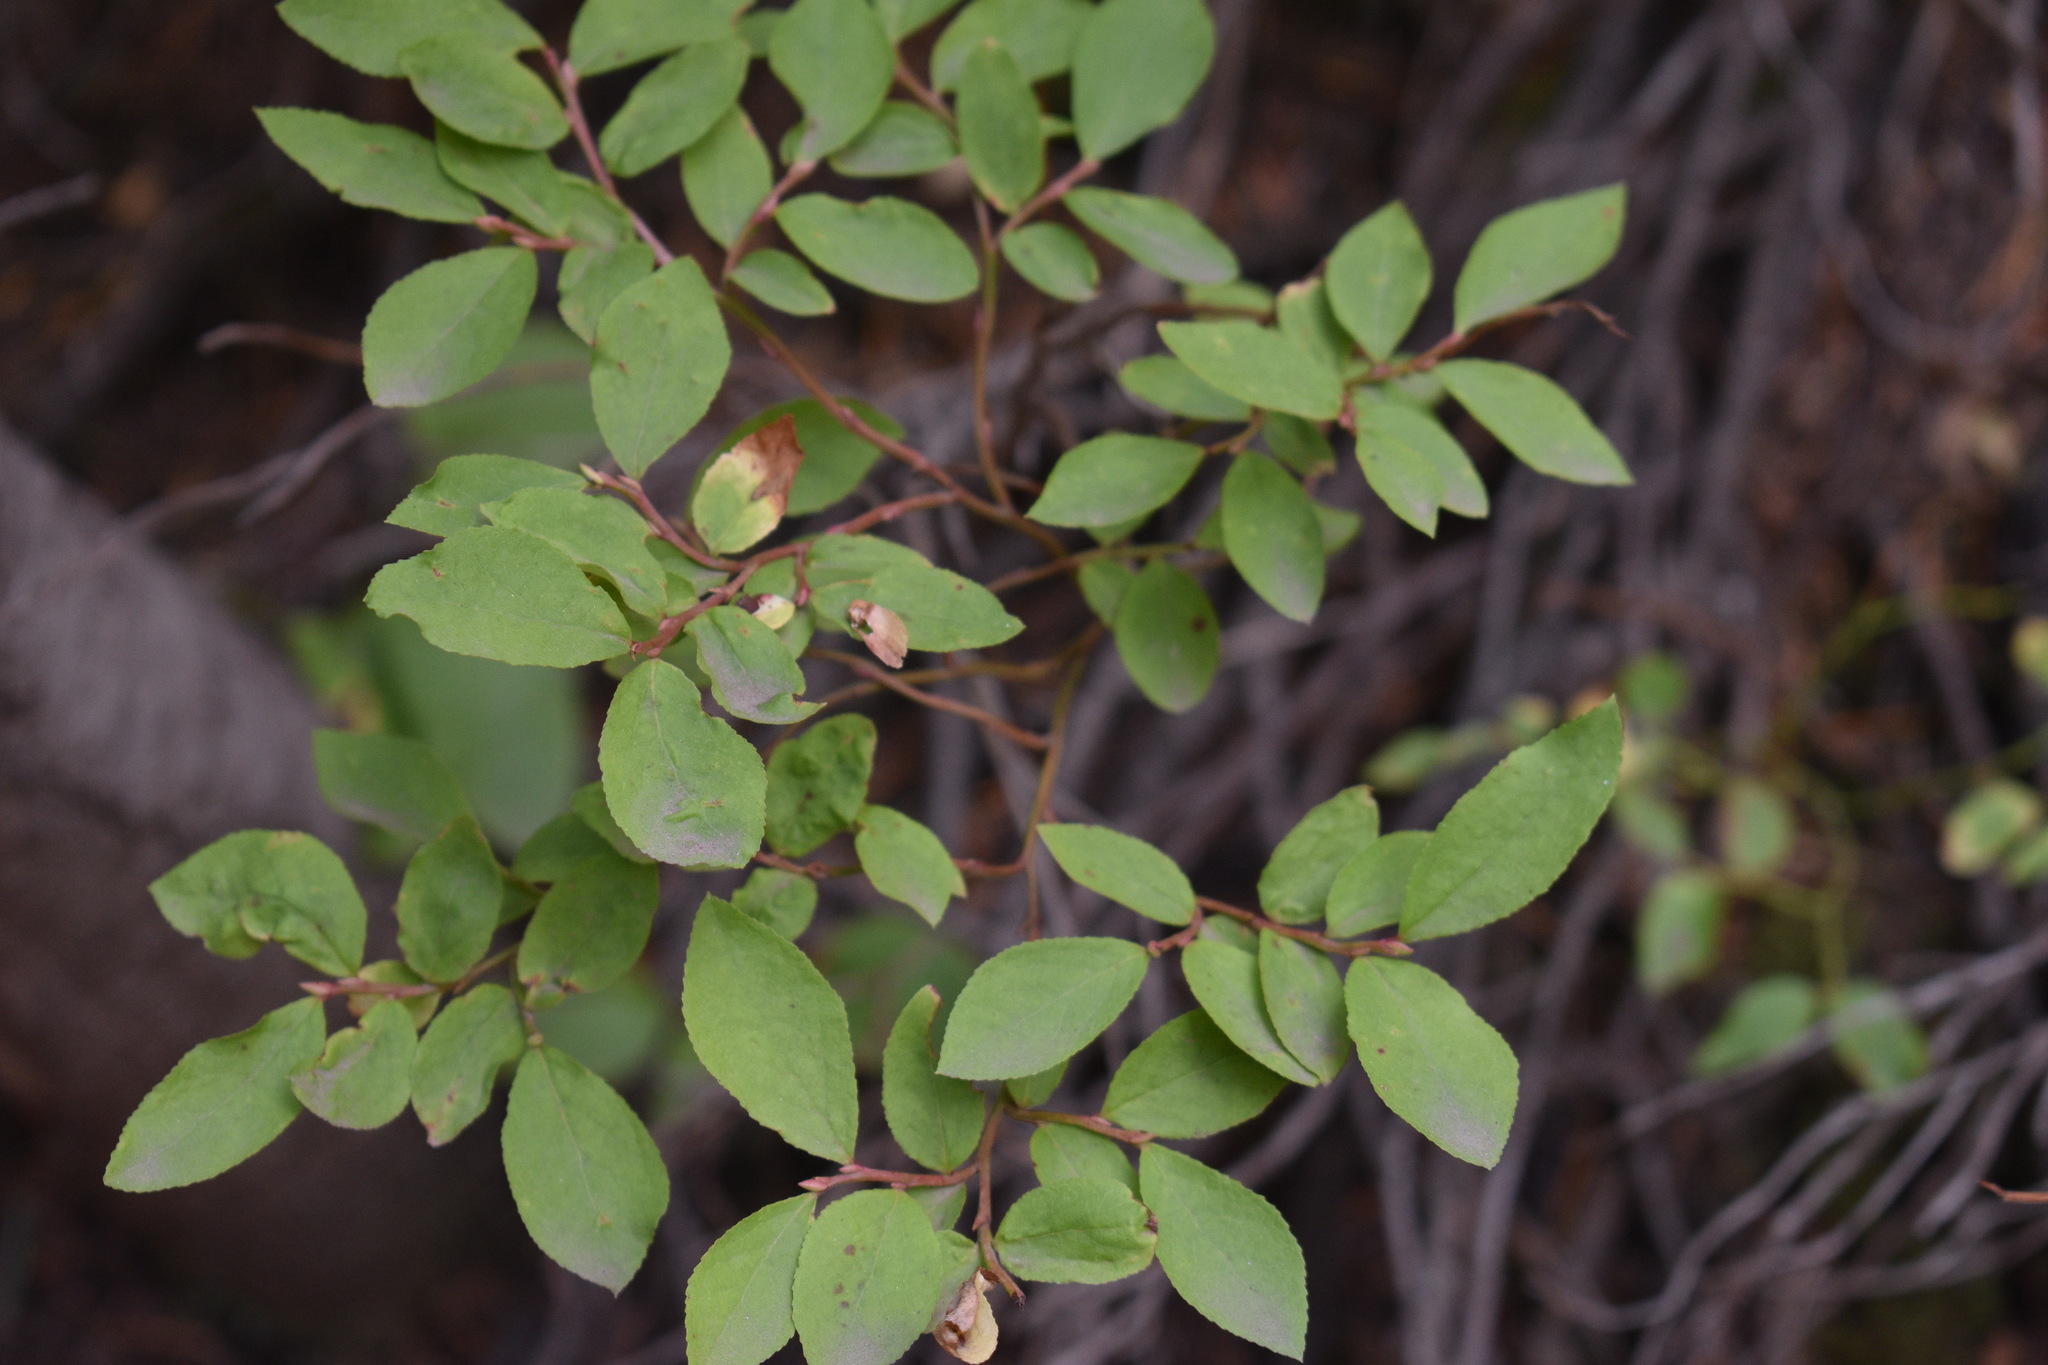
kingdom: Plantae
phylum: Tracheophyta
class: Magnoliopsida
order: Ericales
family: Ericaceae
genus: Vaccinium
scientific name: Vaccinium cespitosum
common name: Dwarf bilberry
